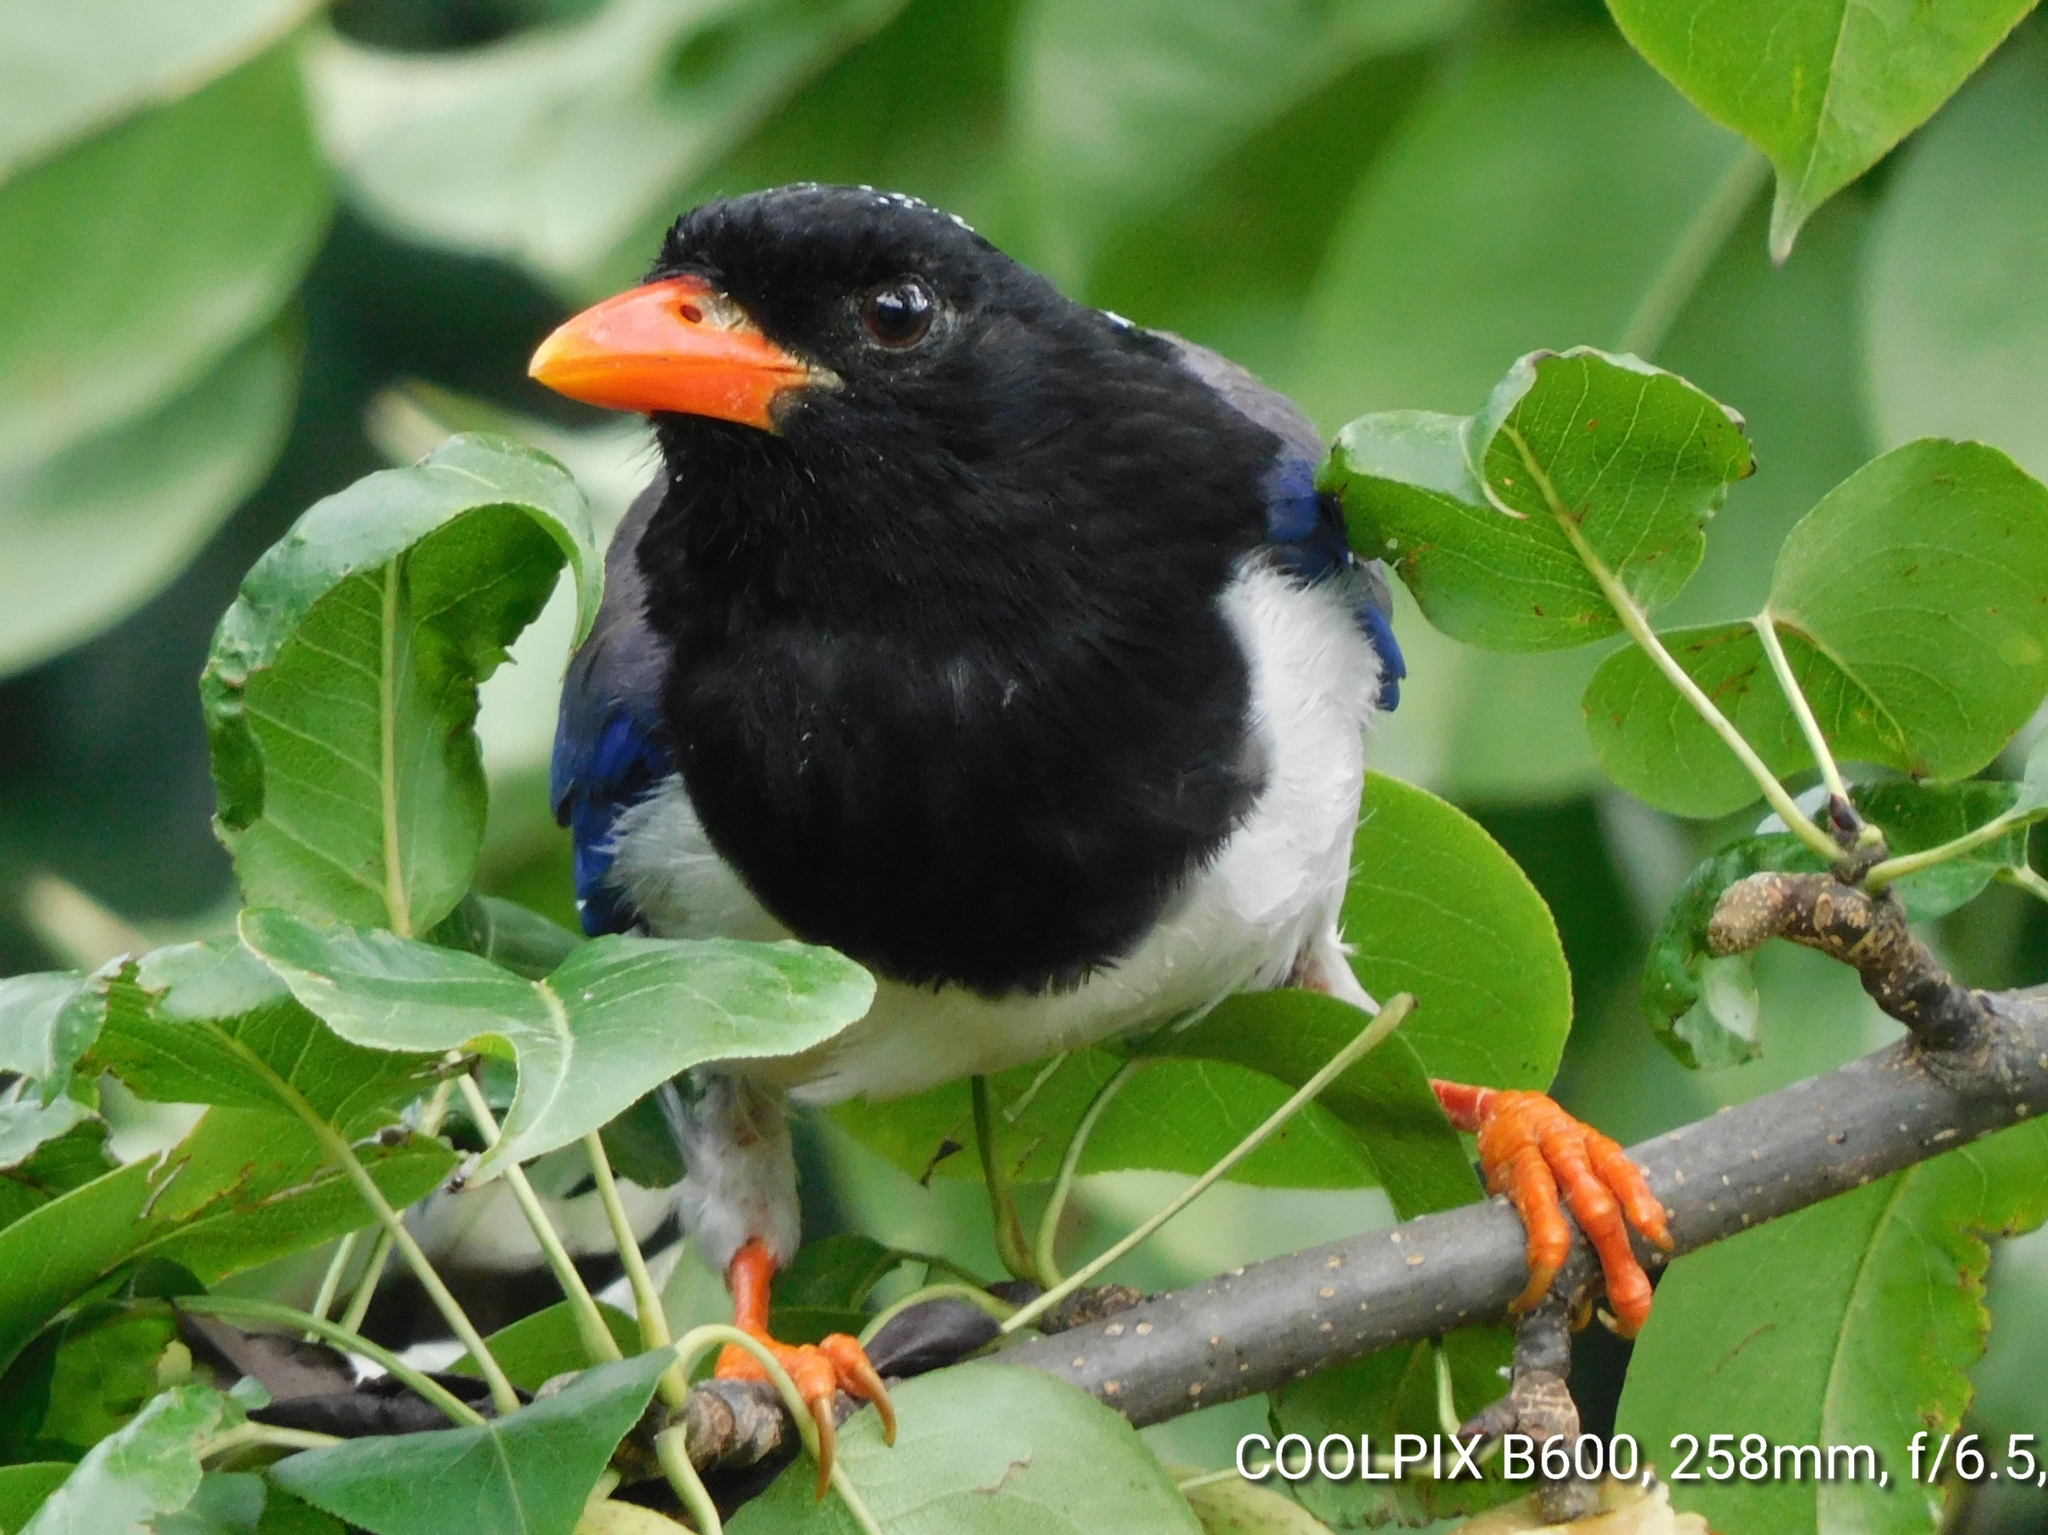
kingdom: Animalia
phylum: Chordata
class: Aves
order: Passeriformes
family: Corvidae
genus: Urocissa
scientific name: Urocissa erythroryncha
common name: Red-billed blue magpie
